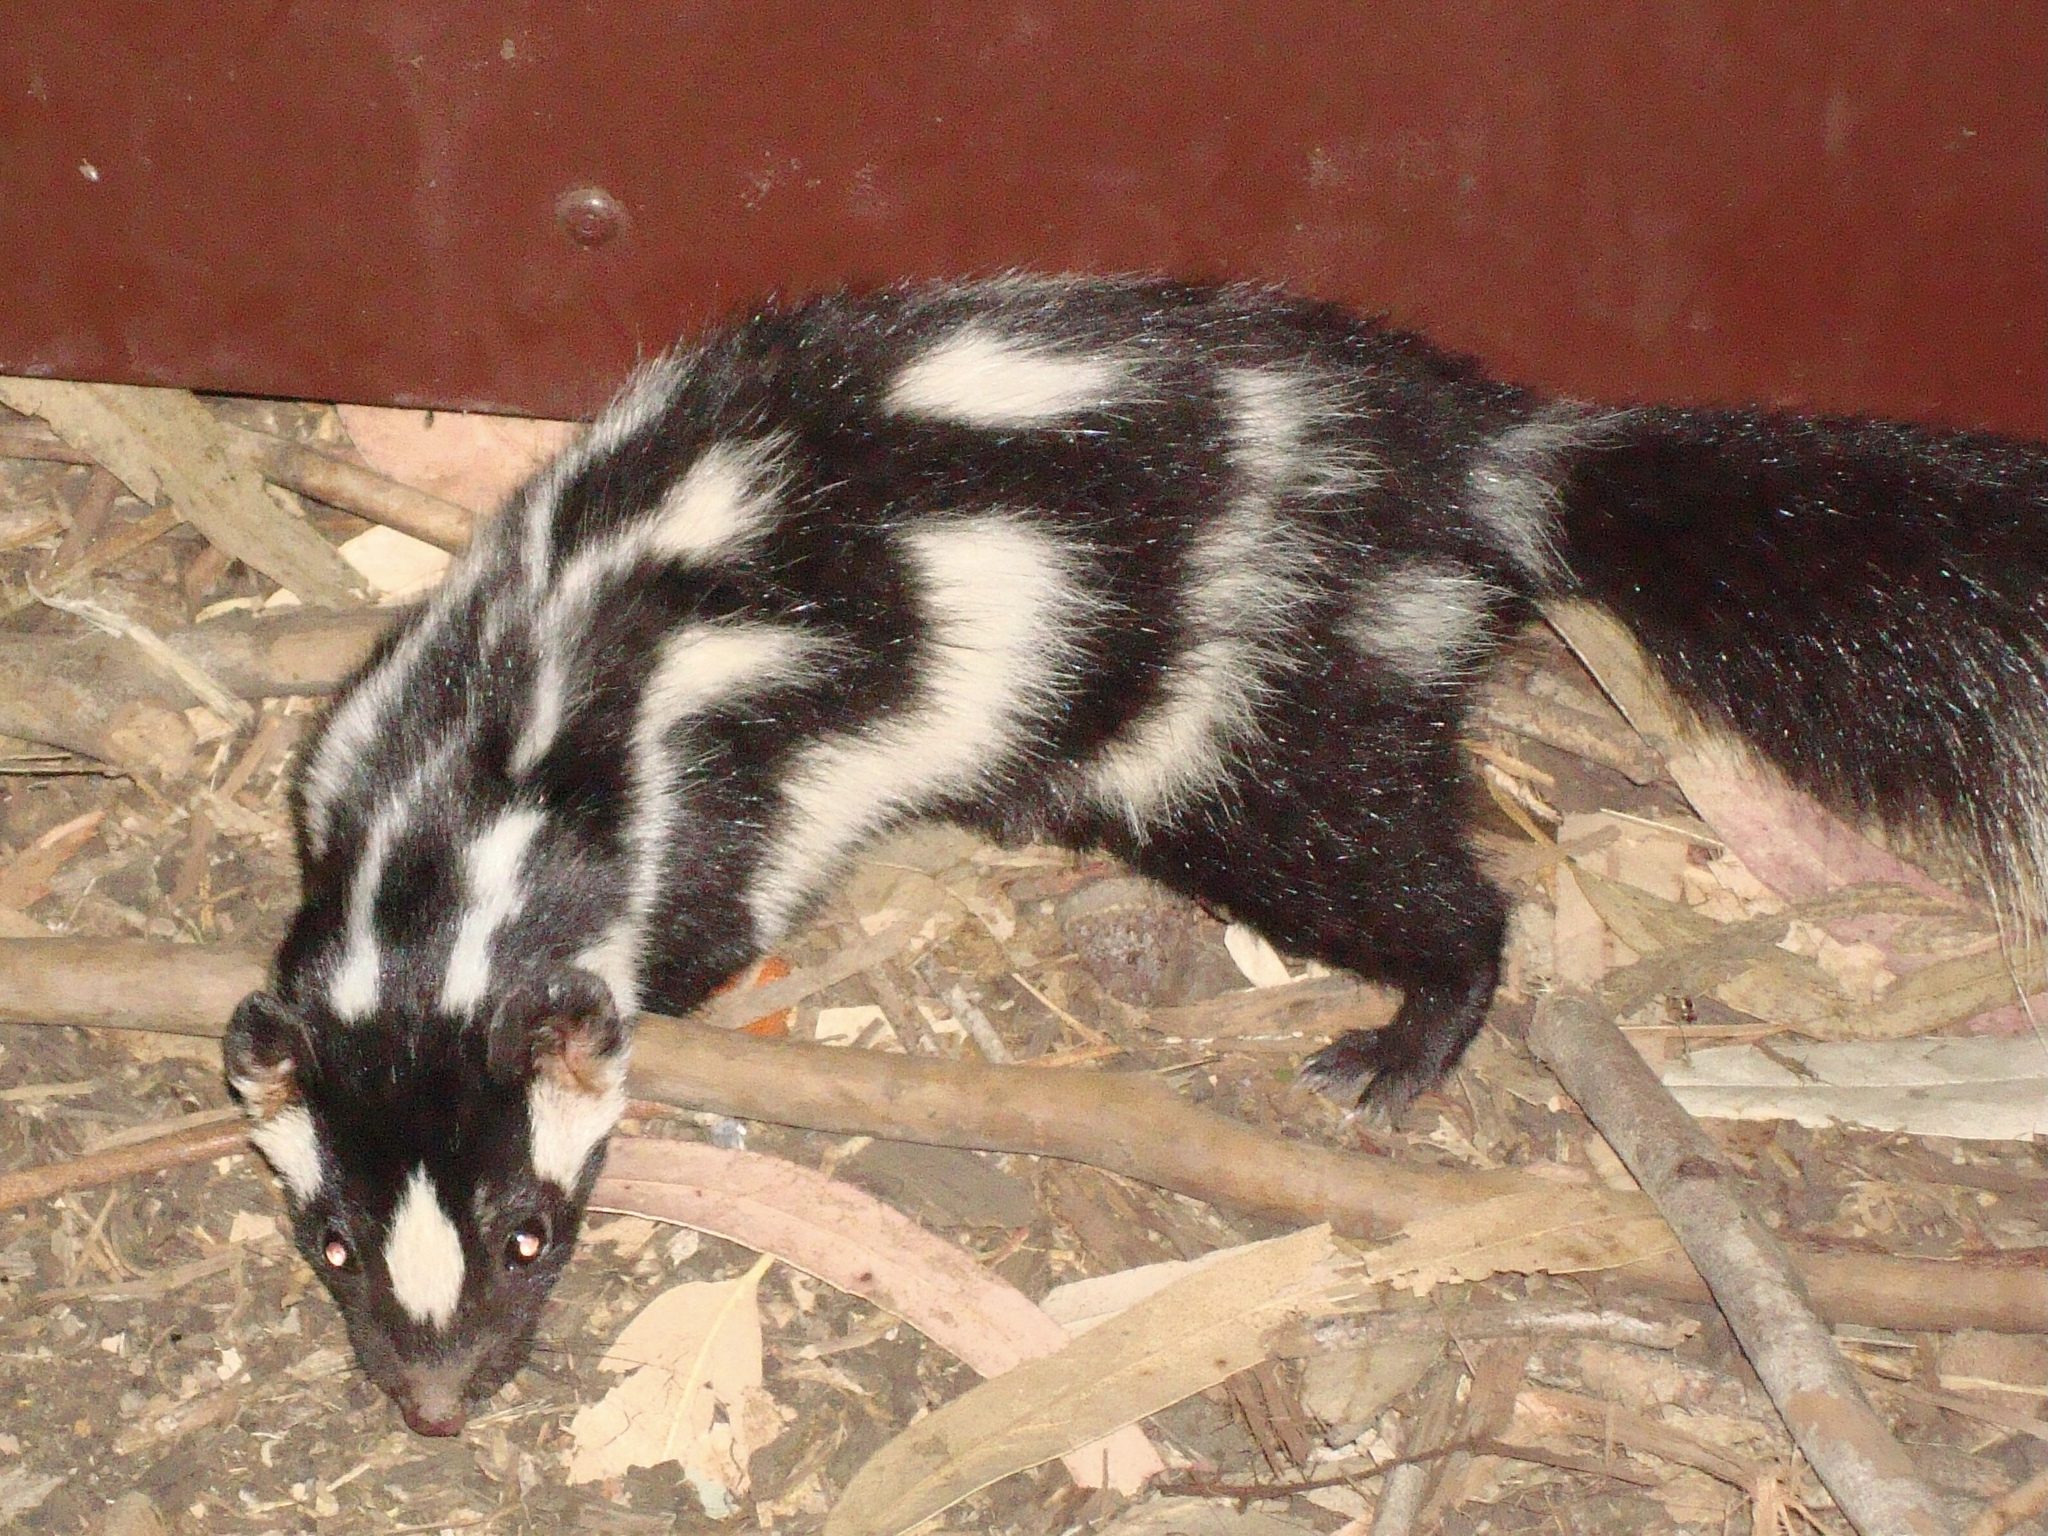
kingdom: Animalia
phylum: Chordata
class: Mammalia
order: Carnivora
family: Mephitidae
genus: Spilogale
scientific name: Spilogale gracilis
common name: Western spotted skunk
